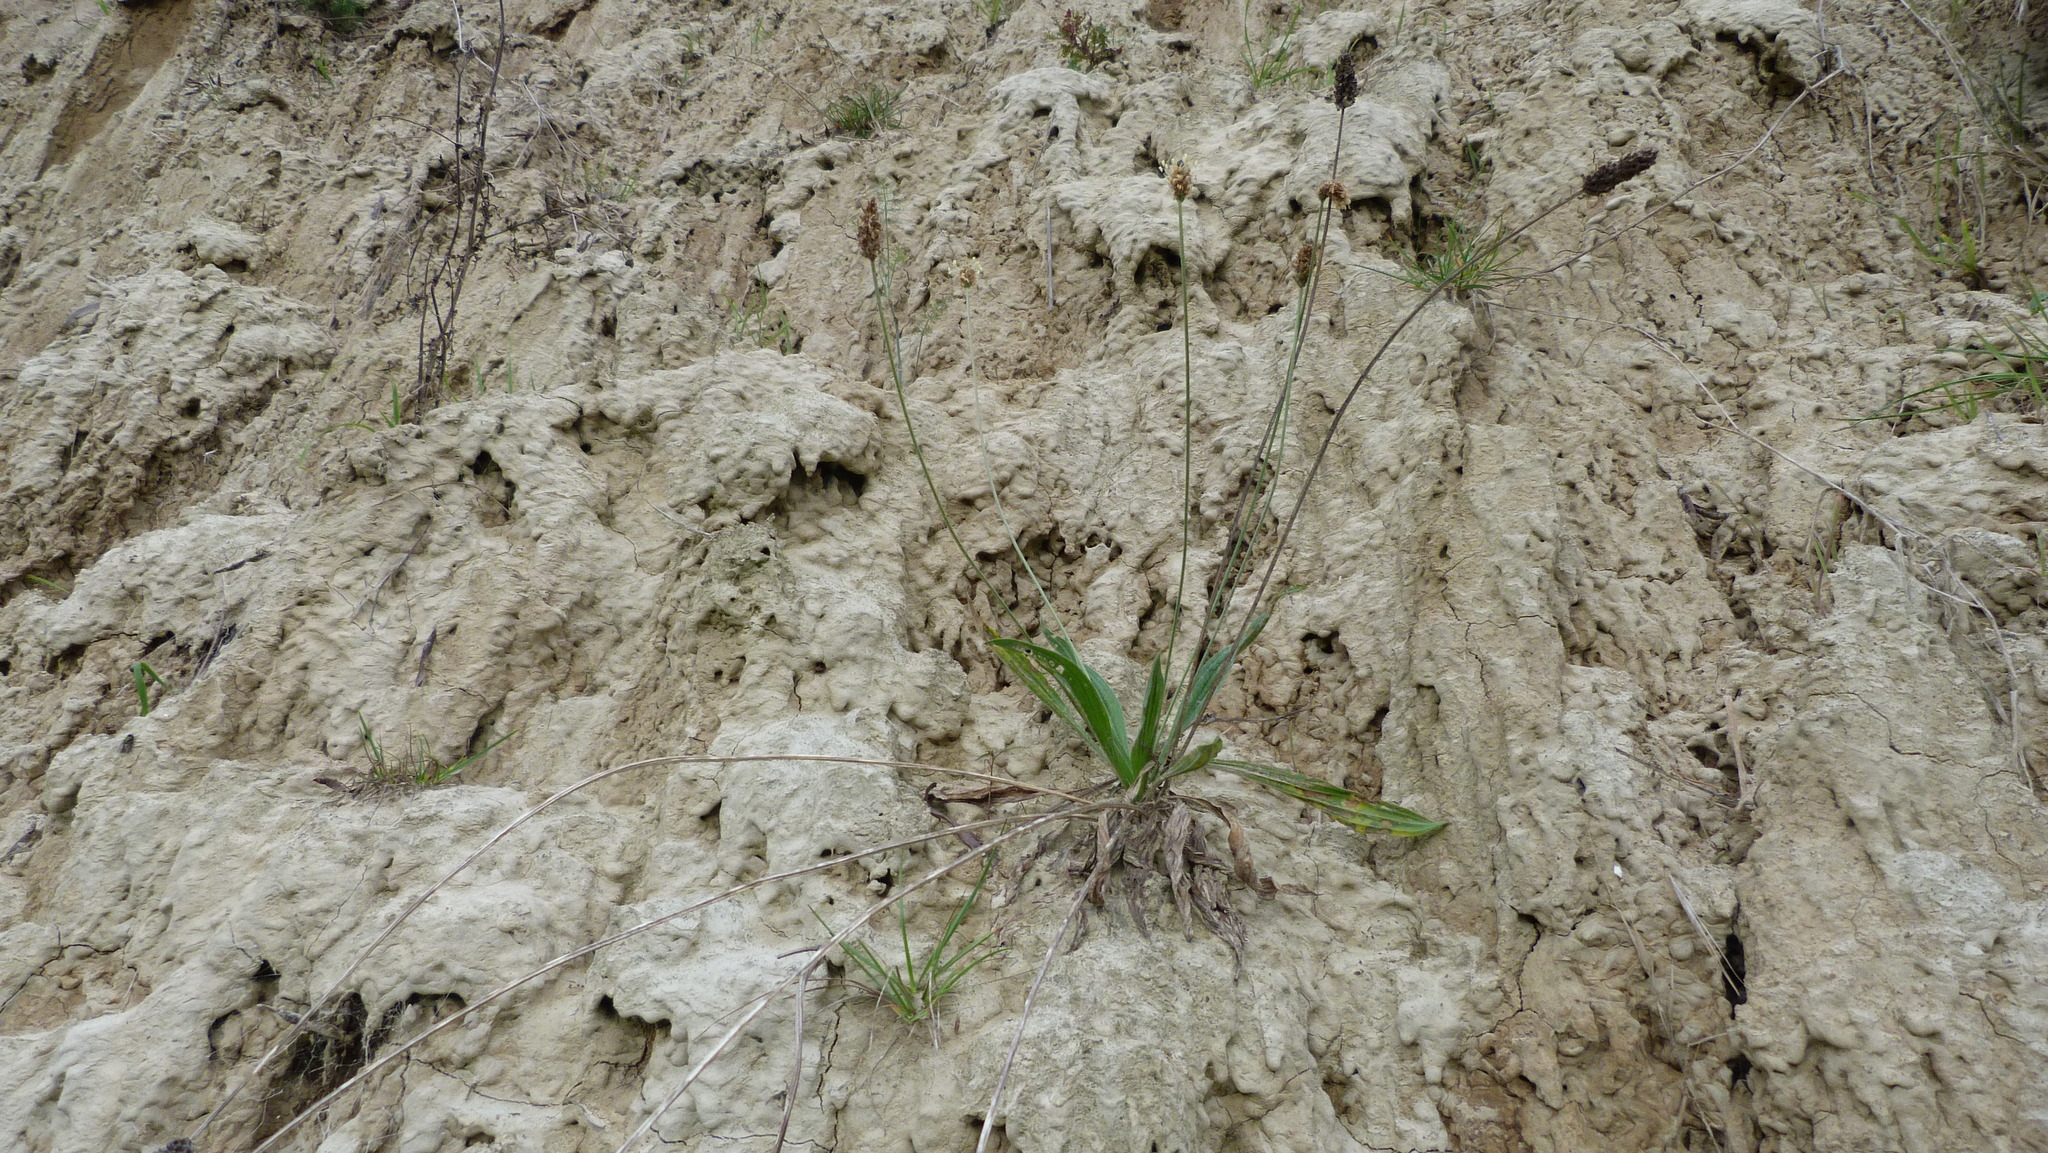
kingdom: Plantae
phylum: Tracheophyta
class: Magnoliopsida
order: Lamiales
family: Plantaginaceae
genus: Plantago
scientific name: Plantago lanceolata
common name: Ribwort plantain
